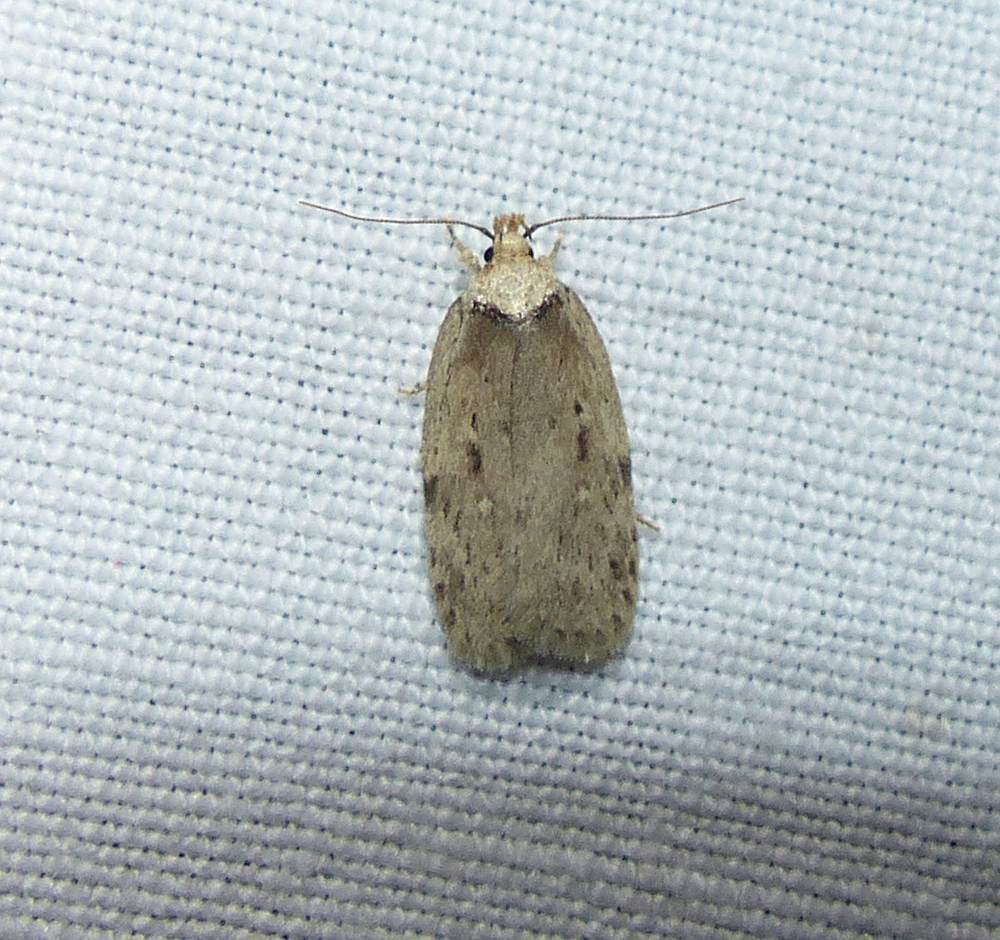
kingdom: Animalia
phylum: Arthropoda
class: Insecta
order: Lepidoptera
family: Depressariidae
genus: Nites
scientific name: Nites betulella
